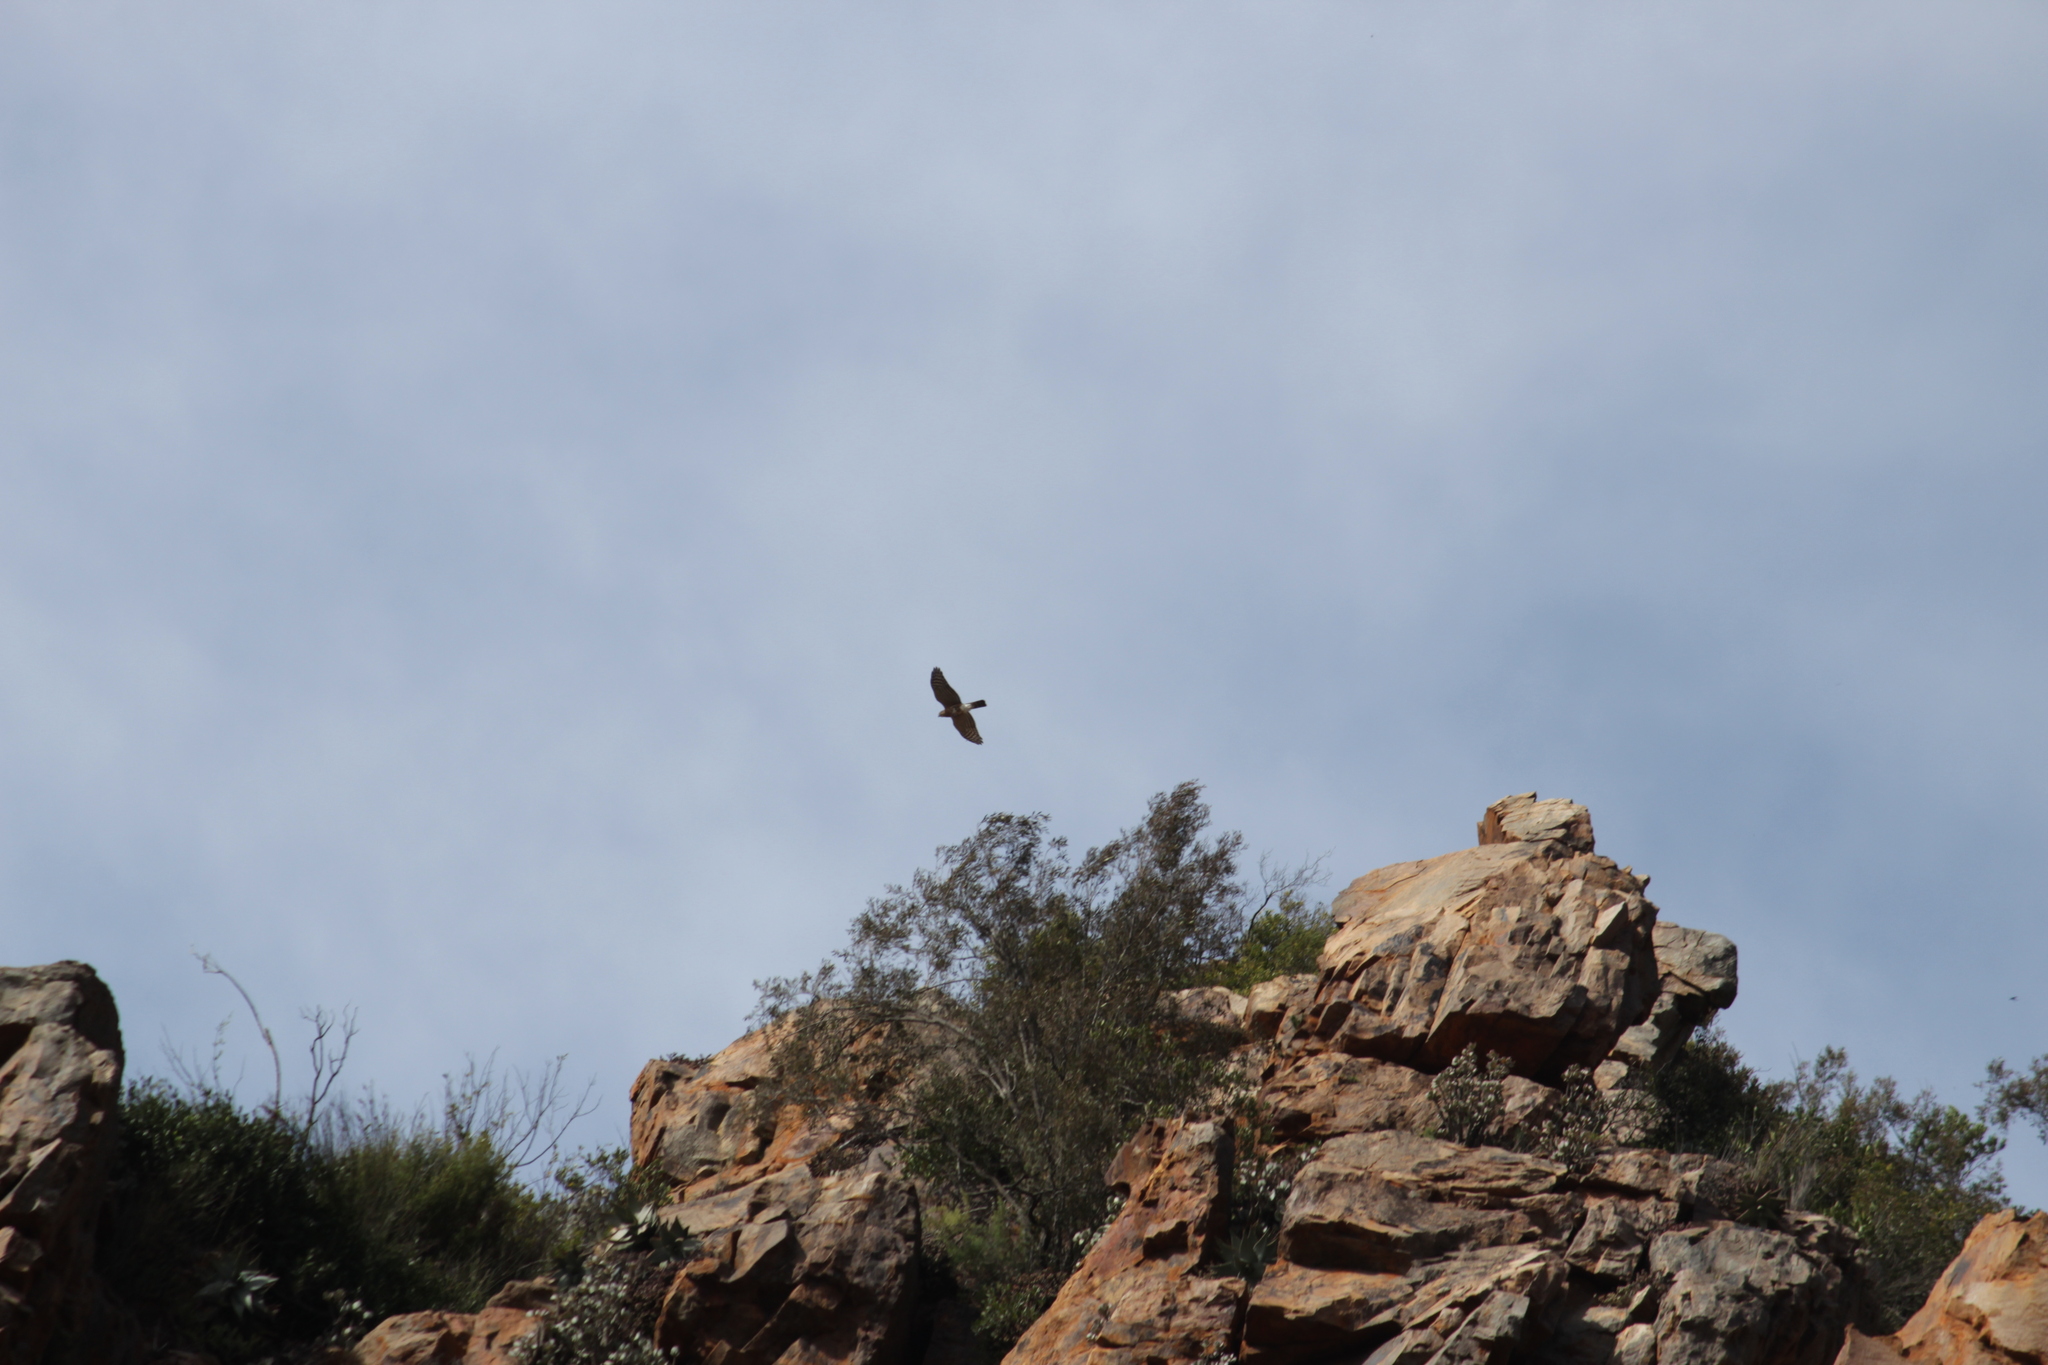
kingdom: Animalia
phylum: Chordata
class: Aves
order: Falconiformes
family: Falconidae
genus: Falco
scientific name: Falco rupicolus
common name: Rock kestrel
